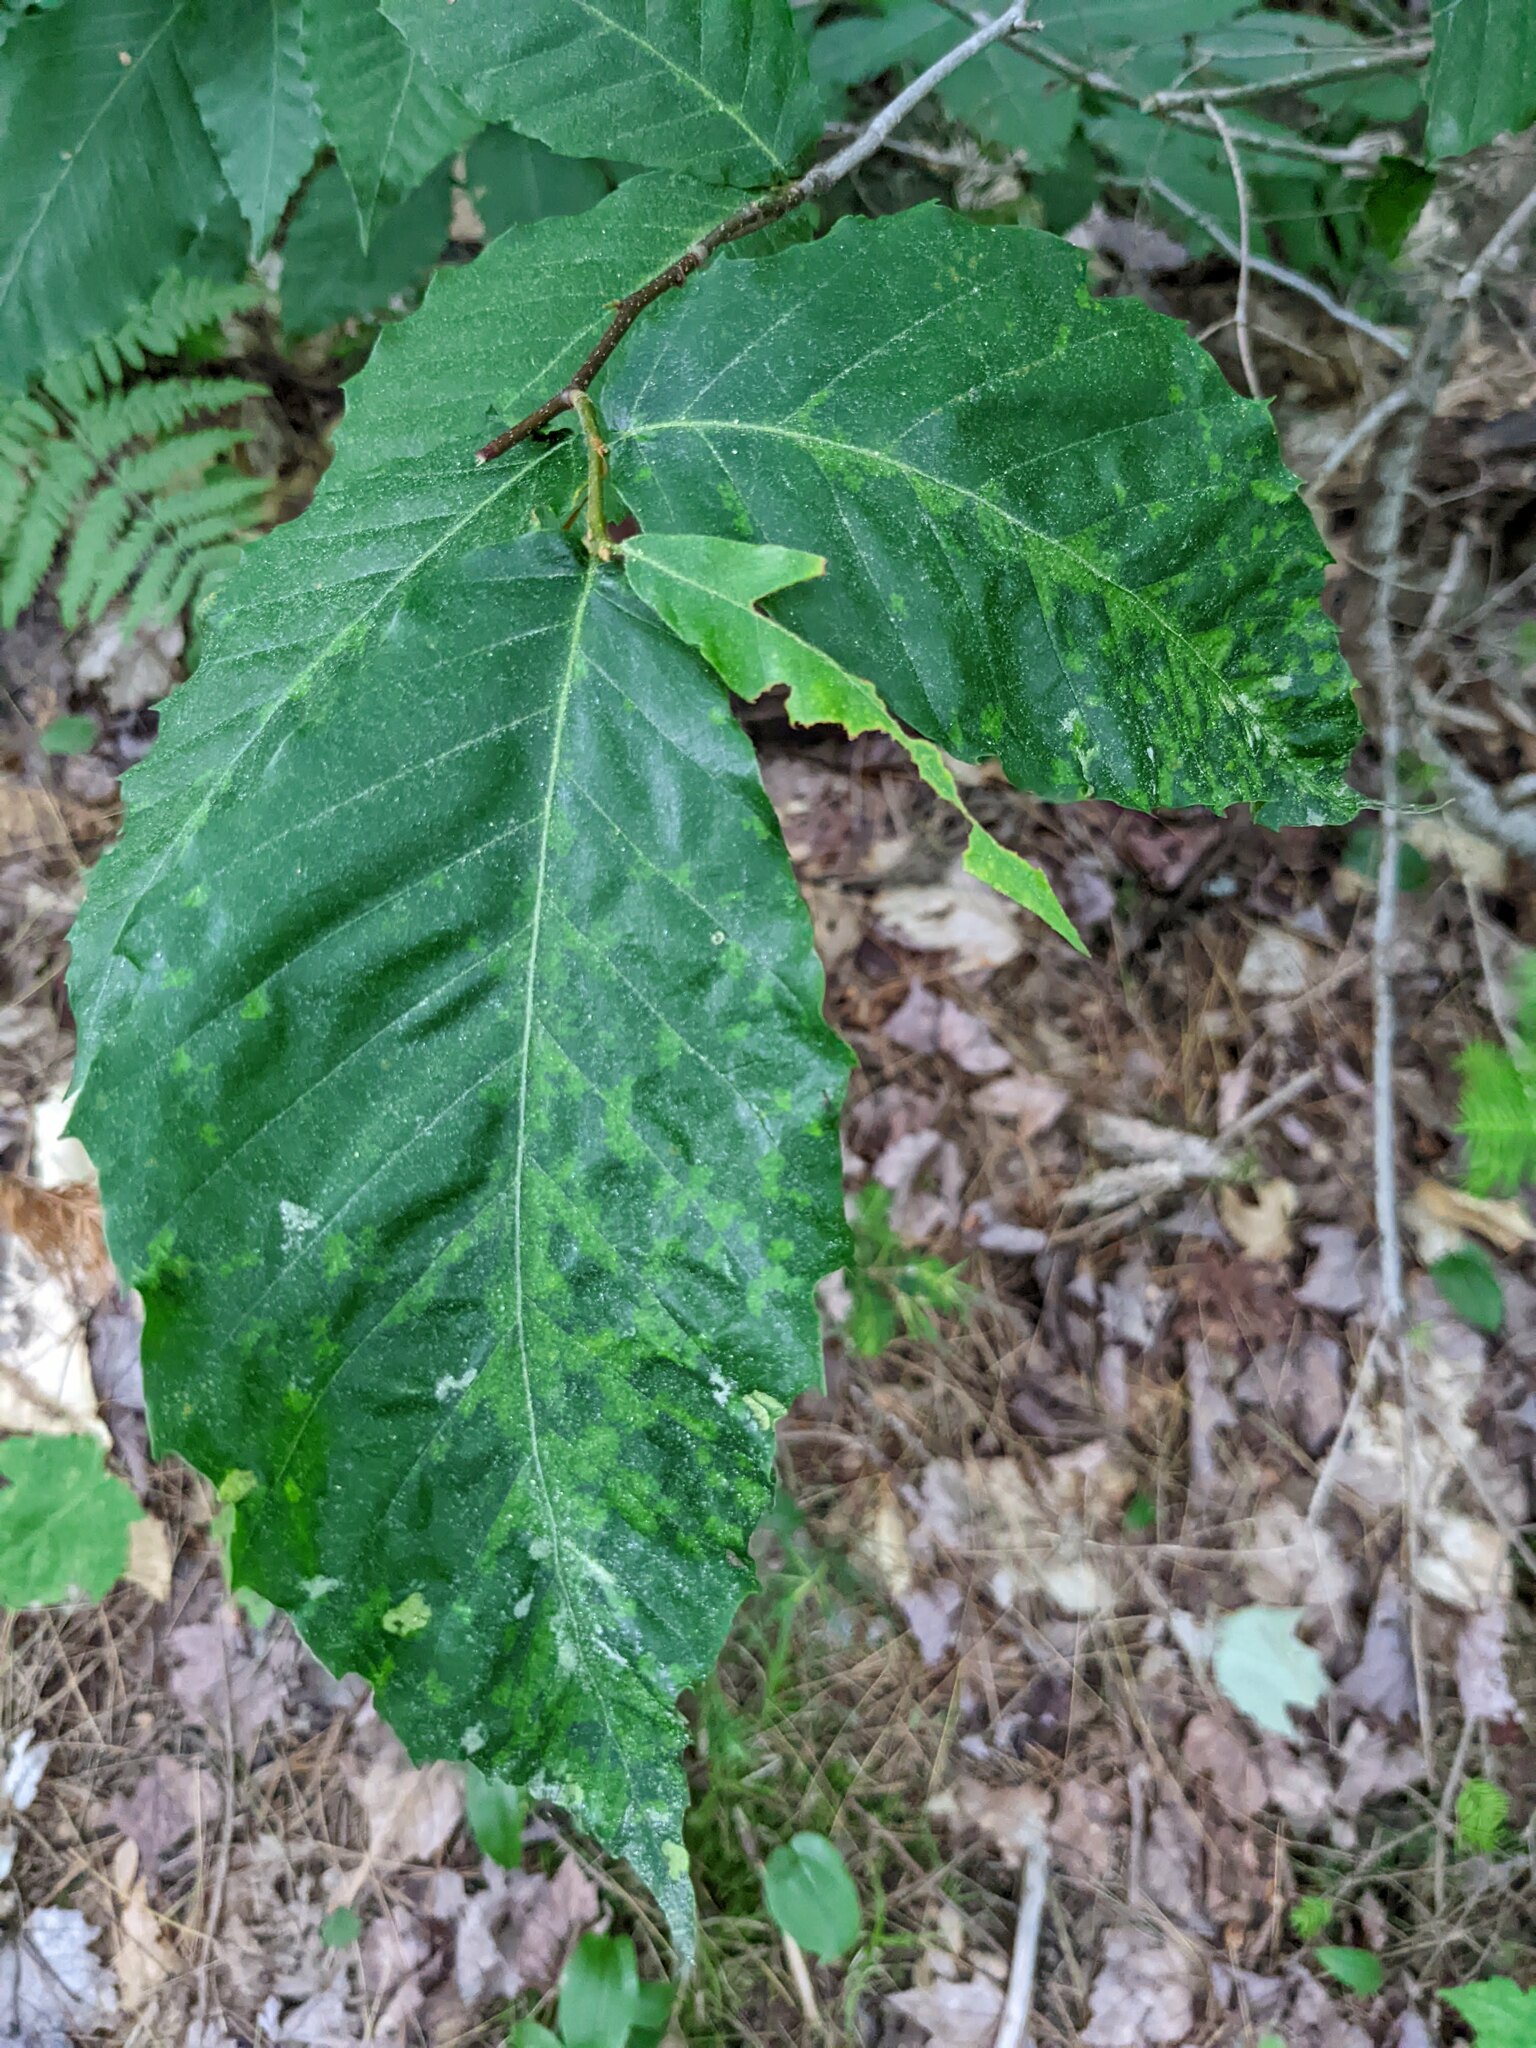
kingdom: Plantae
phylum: Tracheophyta
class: Magnoliopsida
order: Fagales
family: Fagaceae
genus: Fagus
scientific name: Fagus grandifolia
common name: American beech
